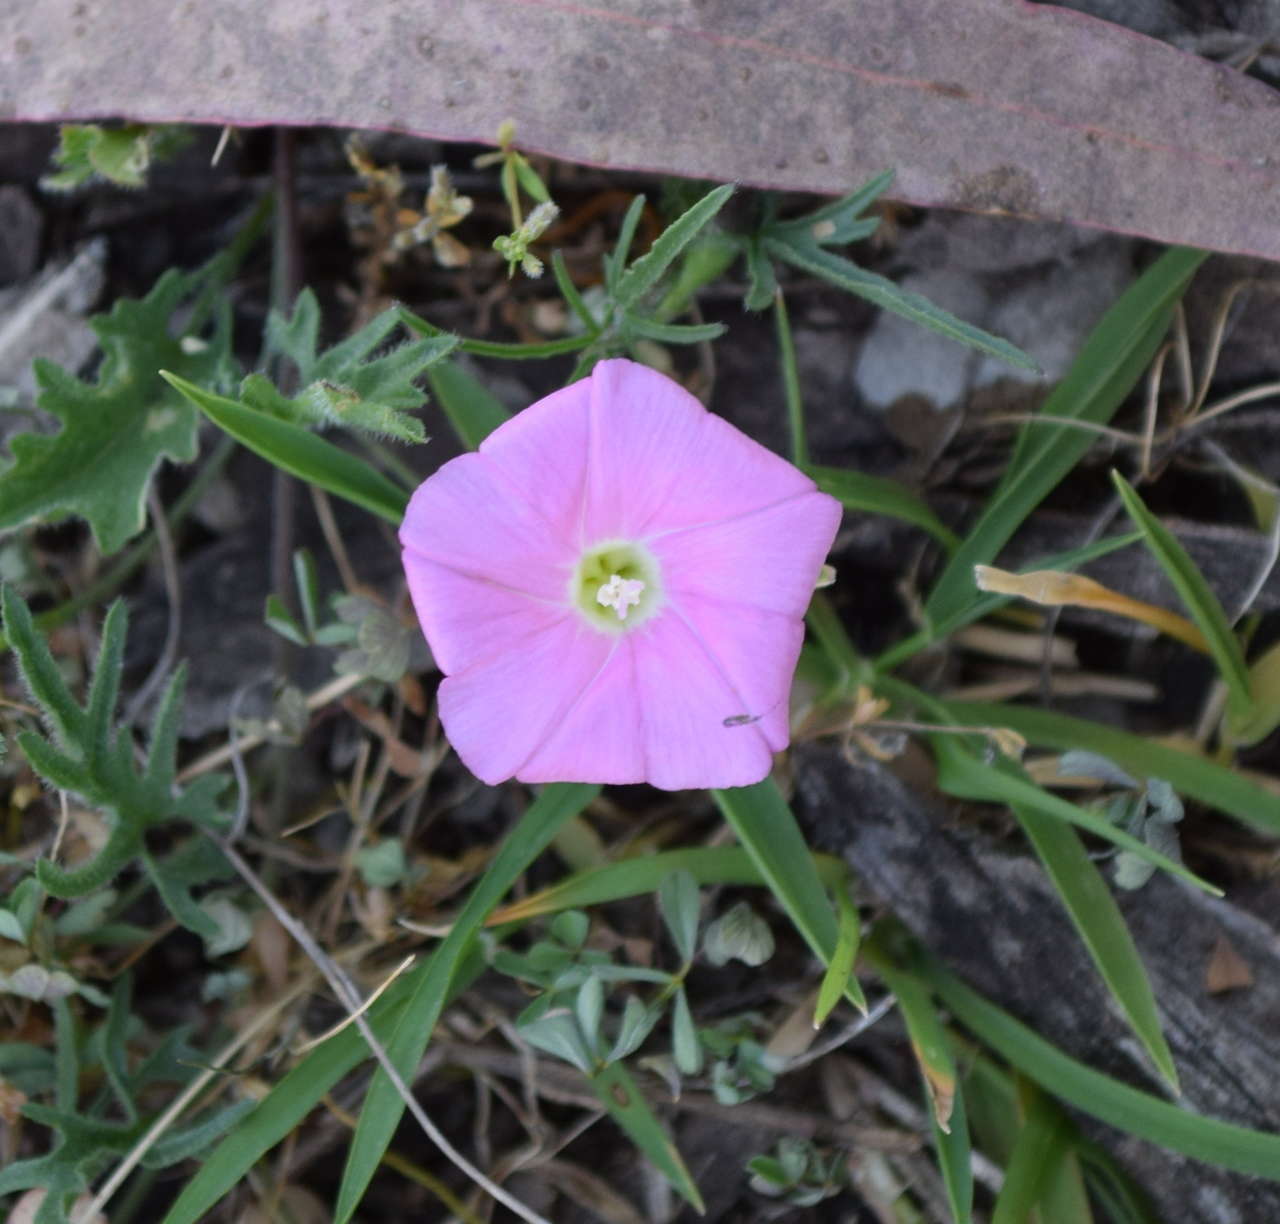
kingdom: Plantae
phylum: Tracheophyta
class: Magnoliopsida
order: Solanales
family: Convolvulaceae
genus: Convolvulus
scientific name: Convolvulus angustissimus
